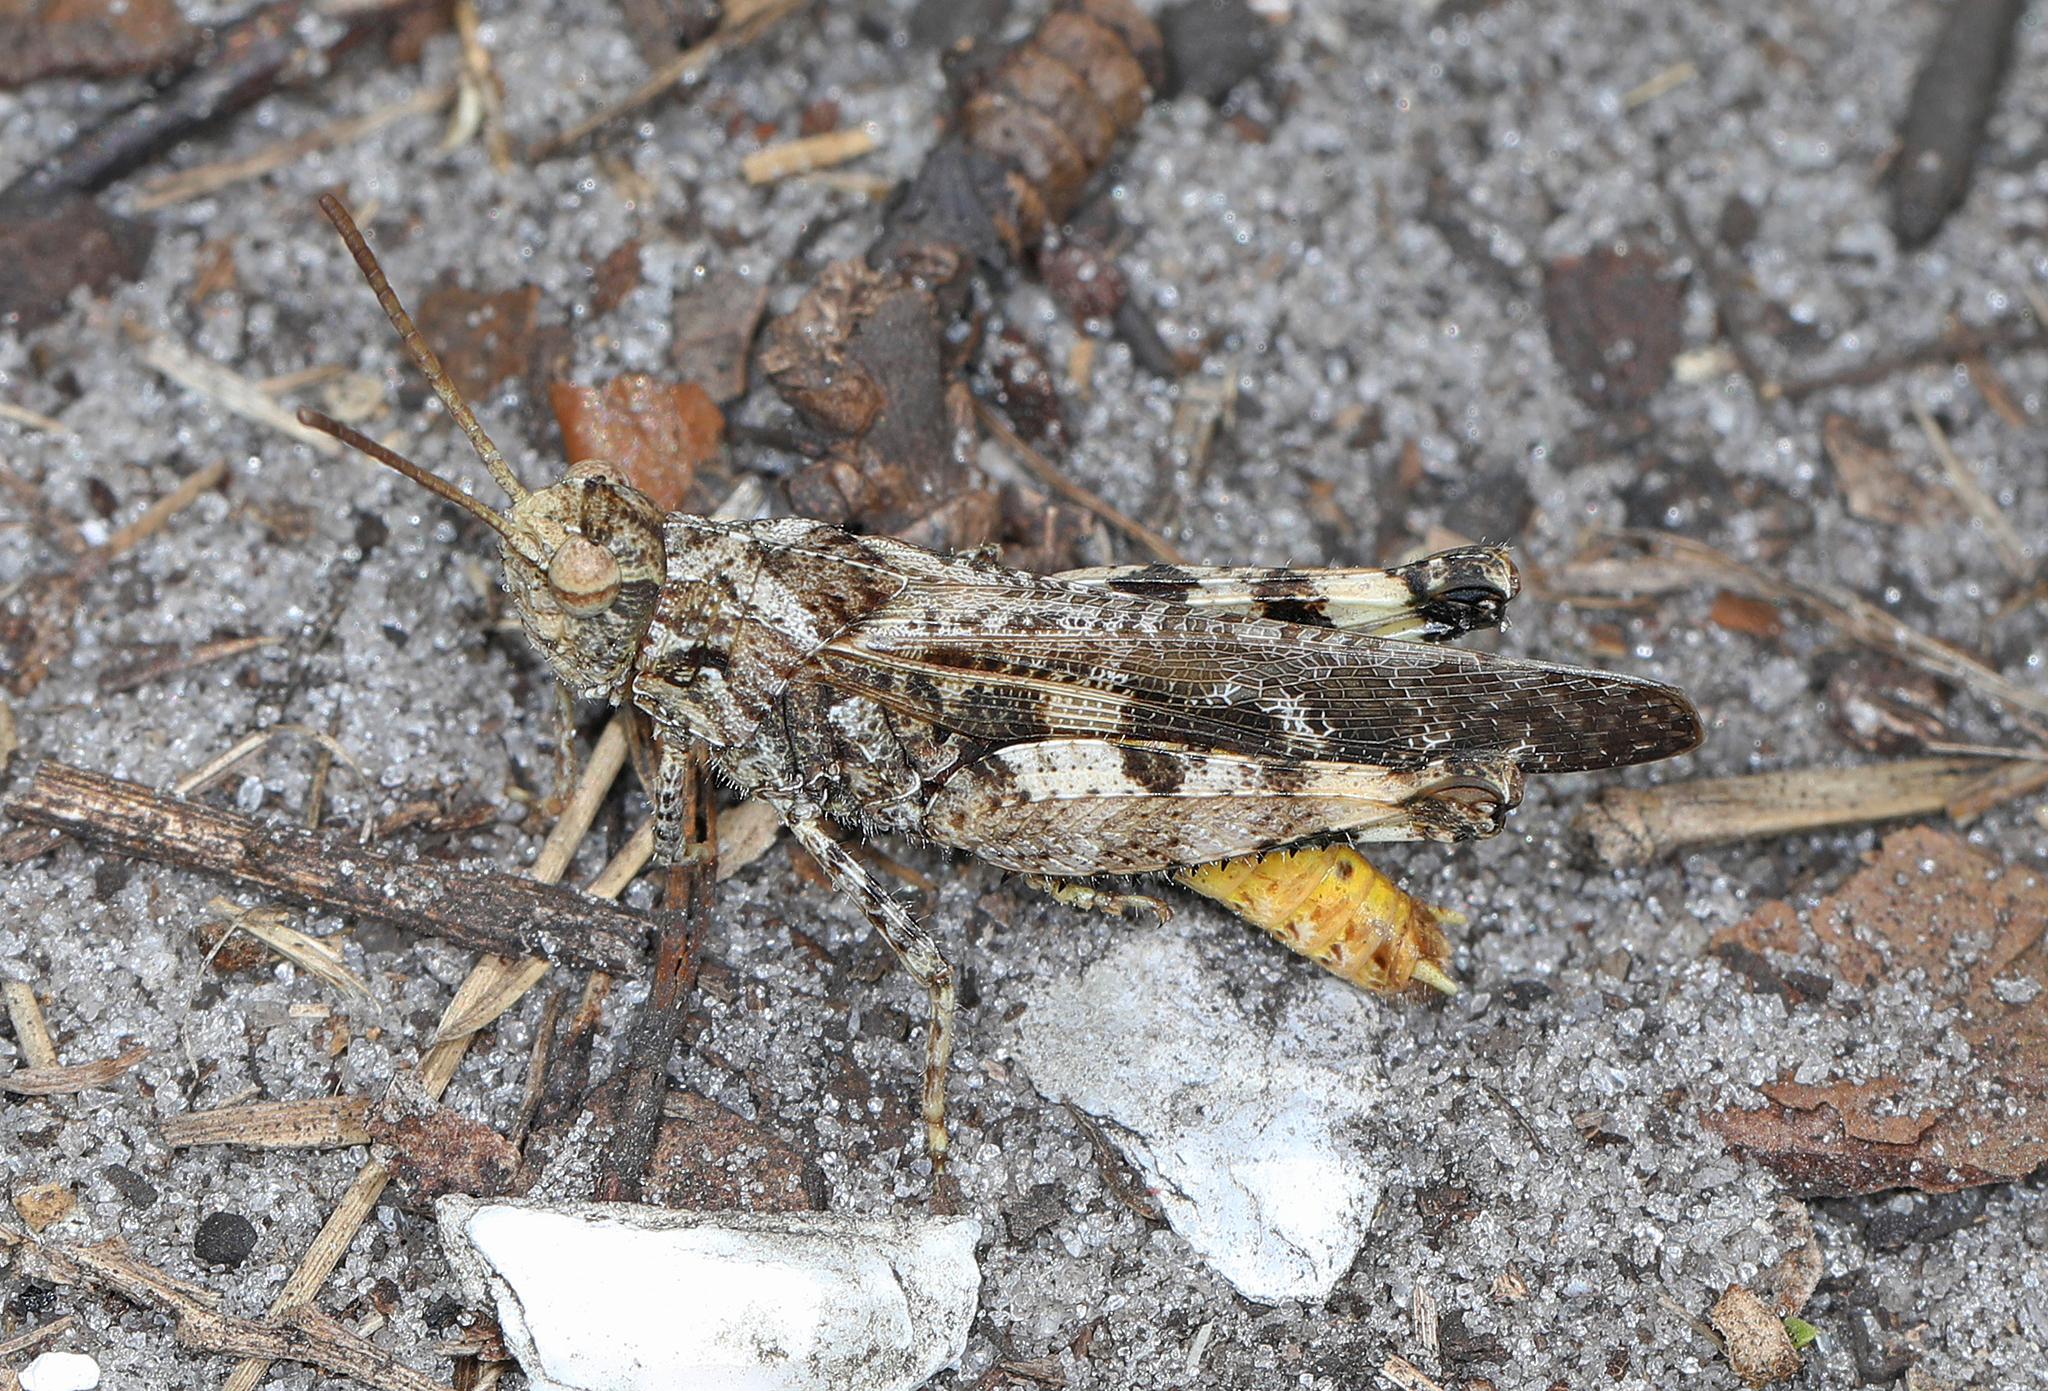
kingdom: Animalia
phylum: Arthropoda
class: Insecta
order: Orthoptera
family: Acrididae
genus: Chortophaga
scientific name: Chortophaga australior
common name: Southern green-striped grasshopper
